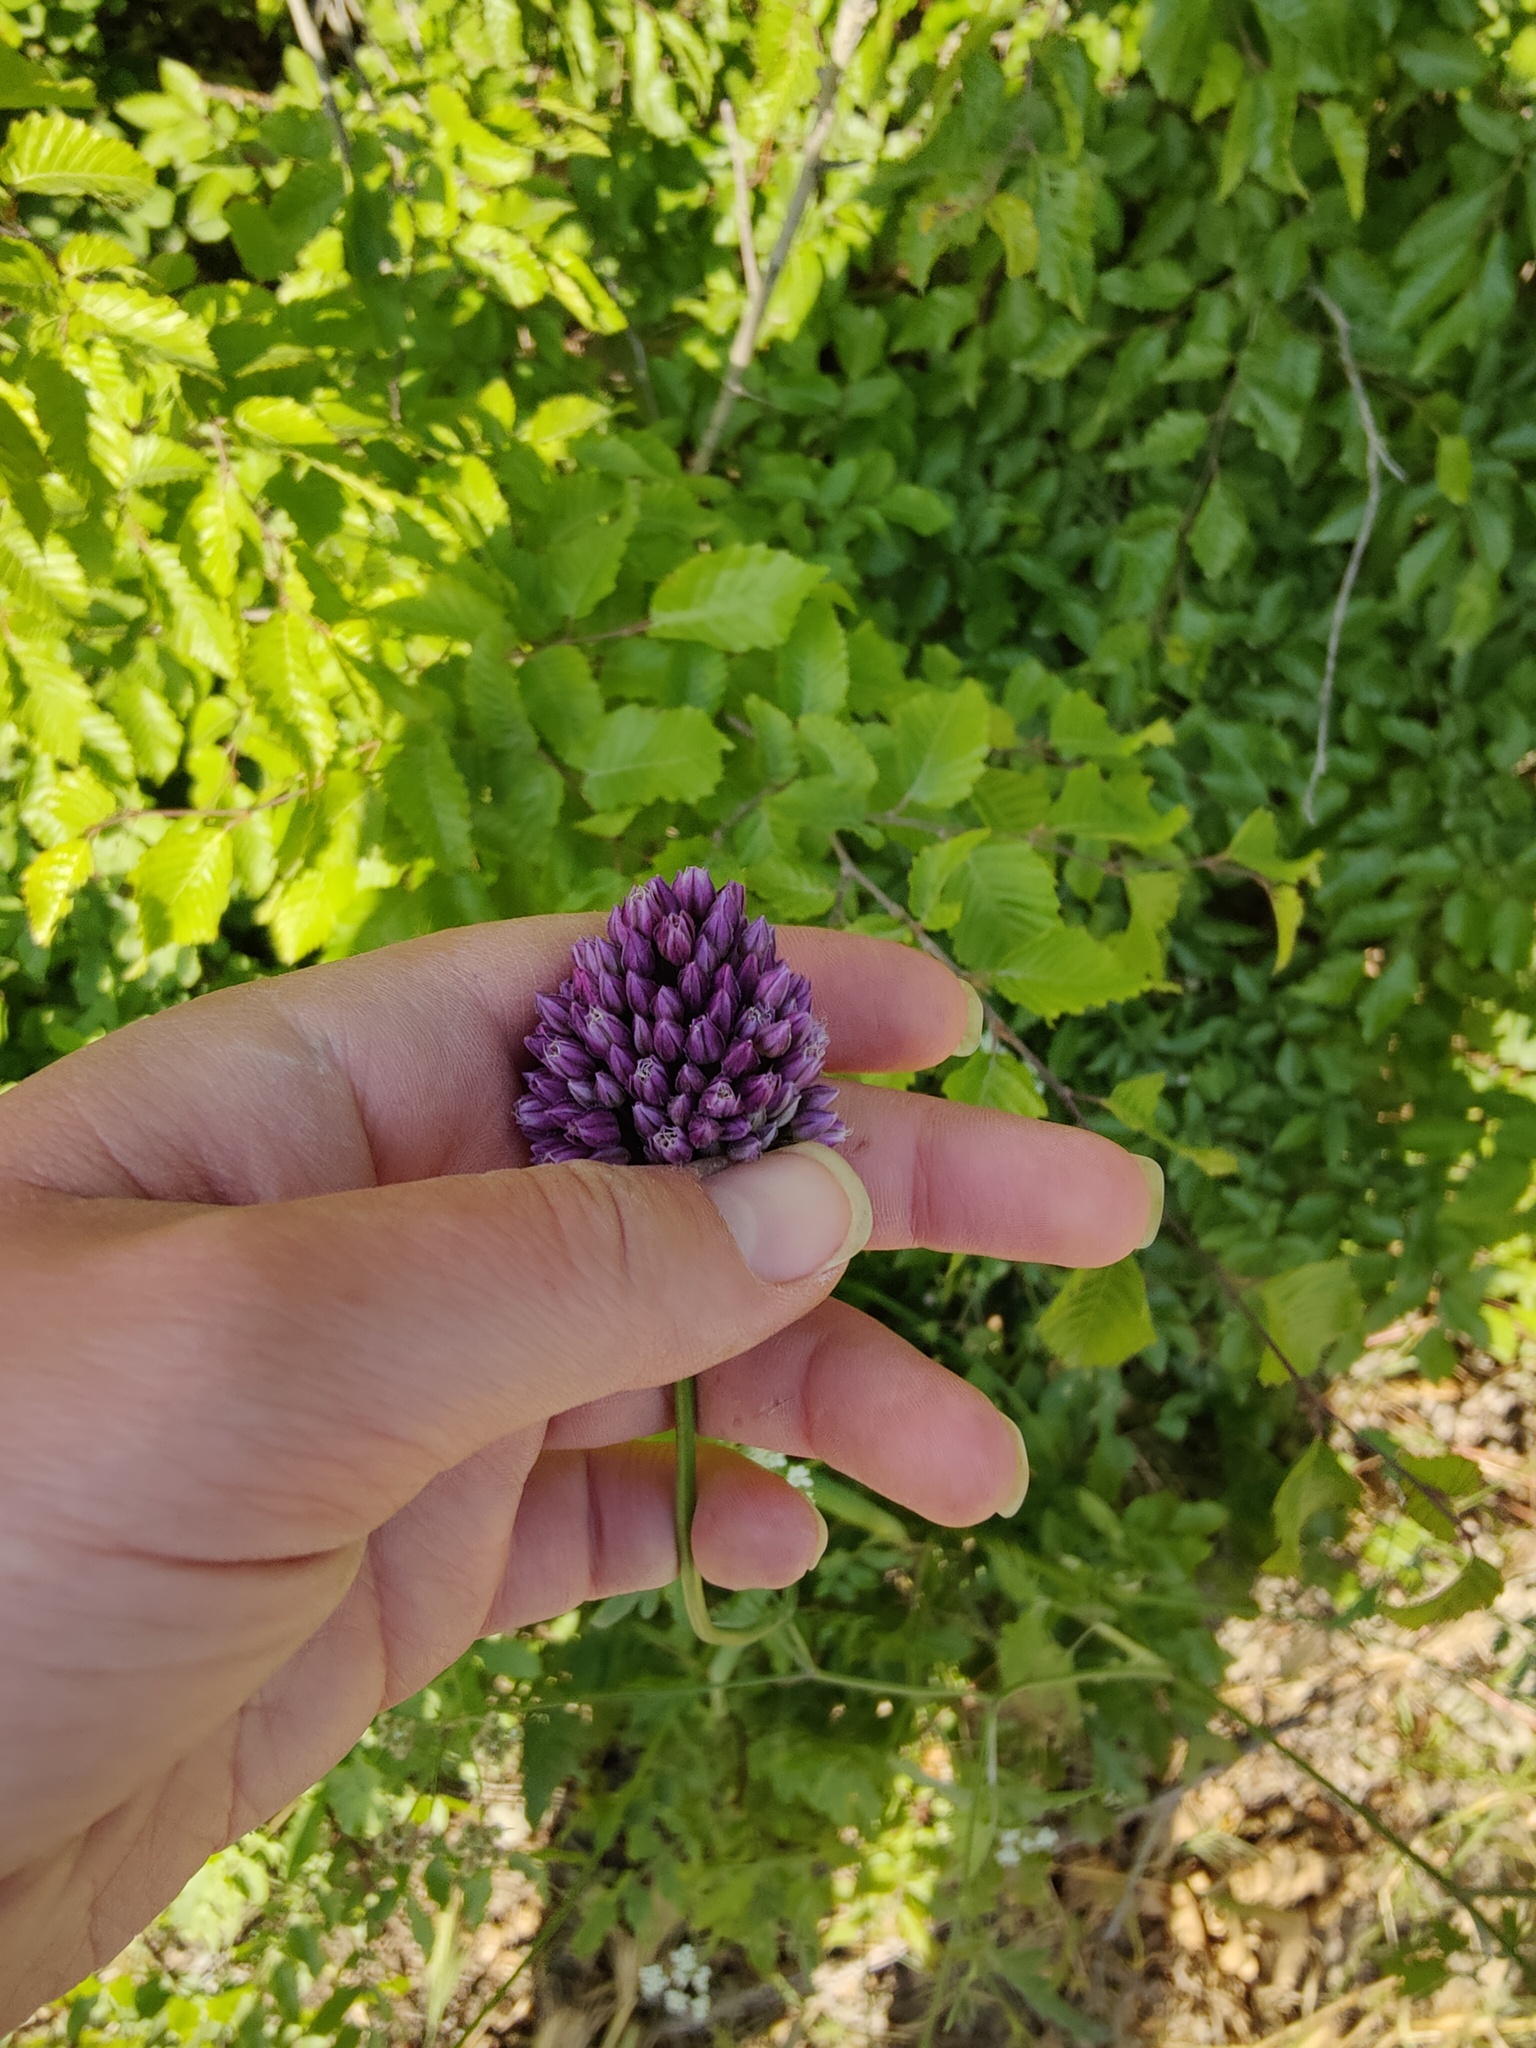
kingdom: Plantae
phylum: Tracheophyta
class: Liliopsida
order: Asparagales
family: Amaryllidaceae
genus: Allium
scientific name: Allium rotundum
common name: Sand leek
